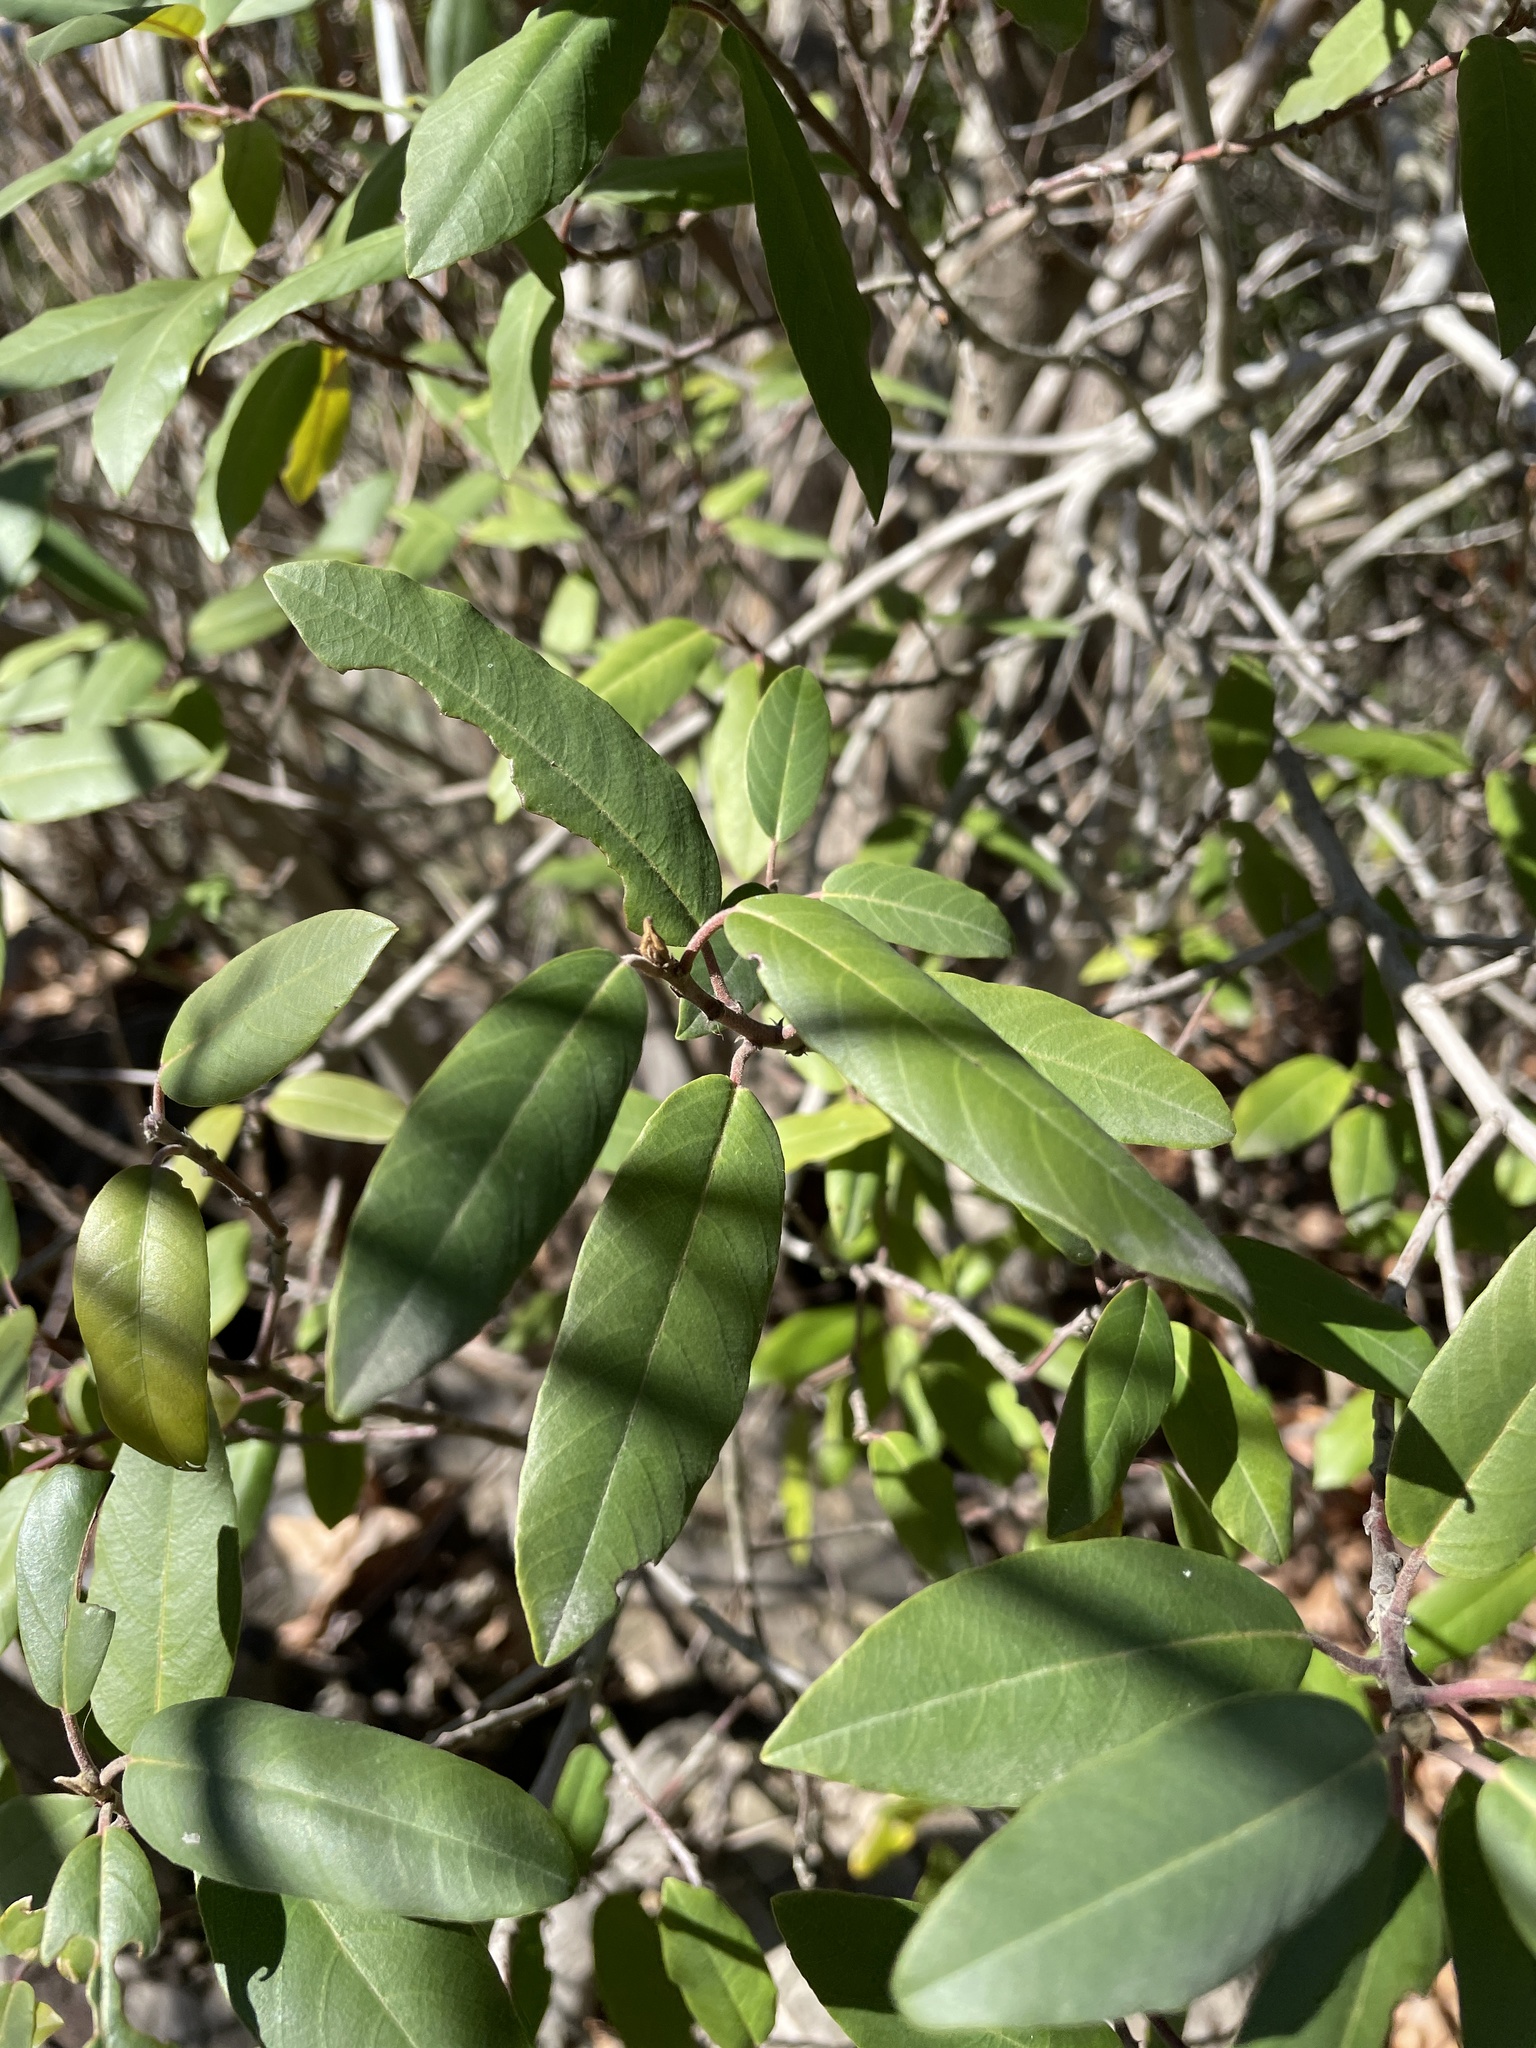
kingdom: Plantae
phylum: Tracheophyta
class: Magnoliopsida
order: Rosales
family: Rhamnaceae
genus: Frangula
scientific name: Frangula californica
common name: California buckthorn
